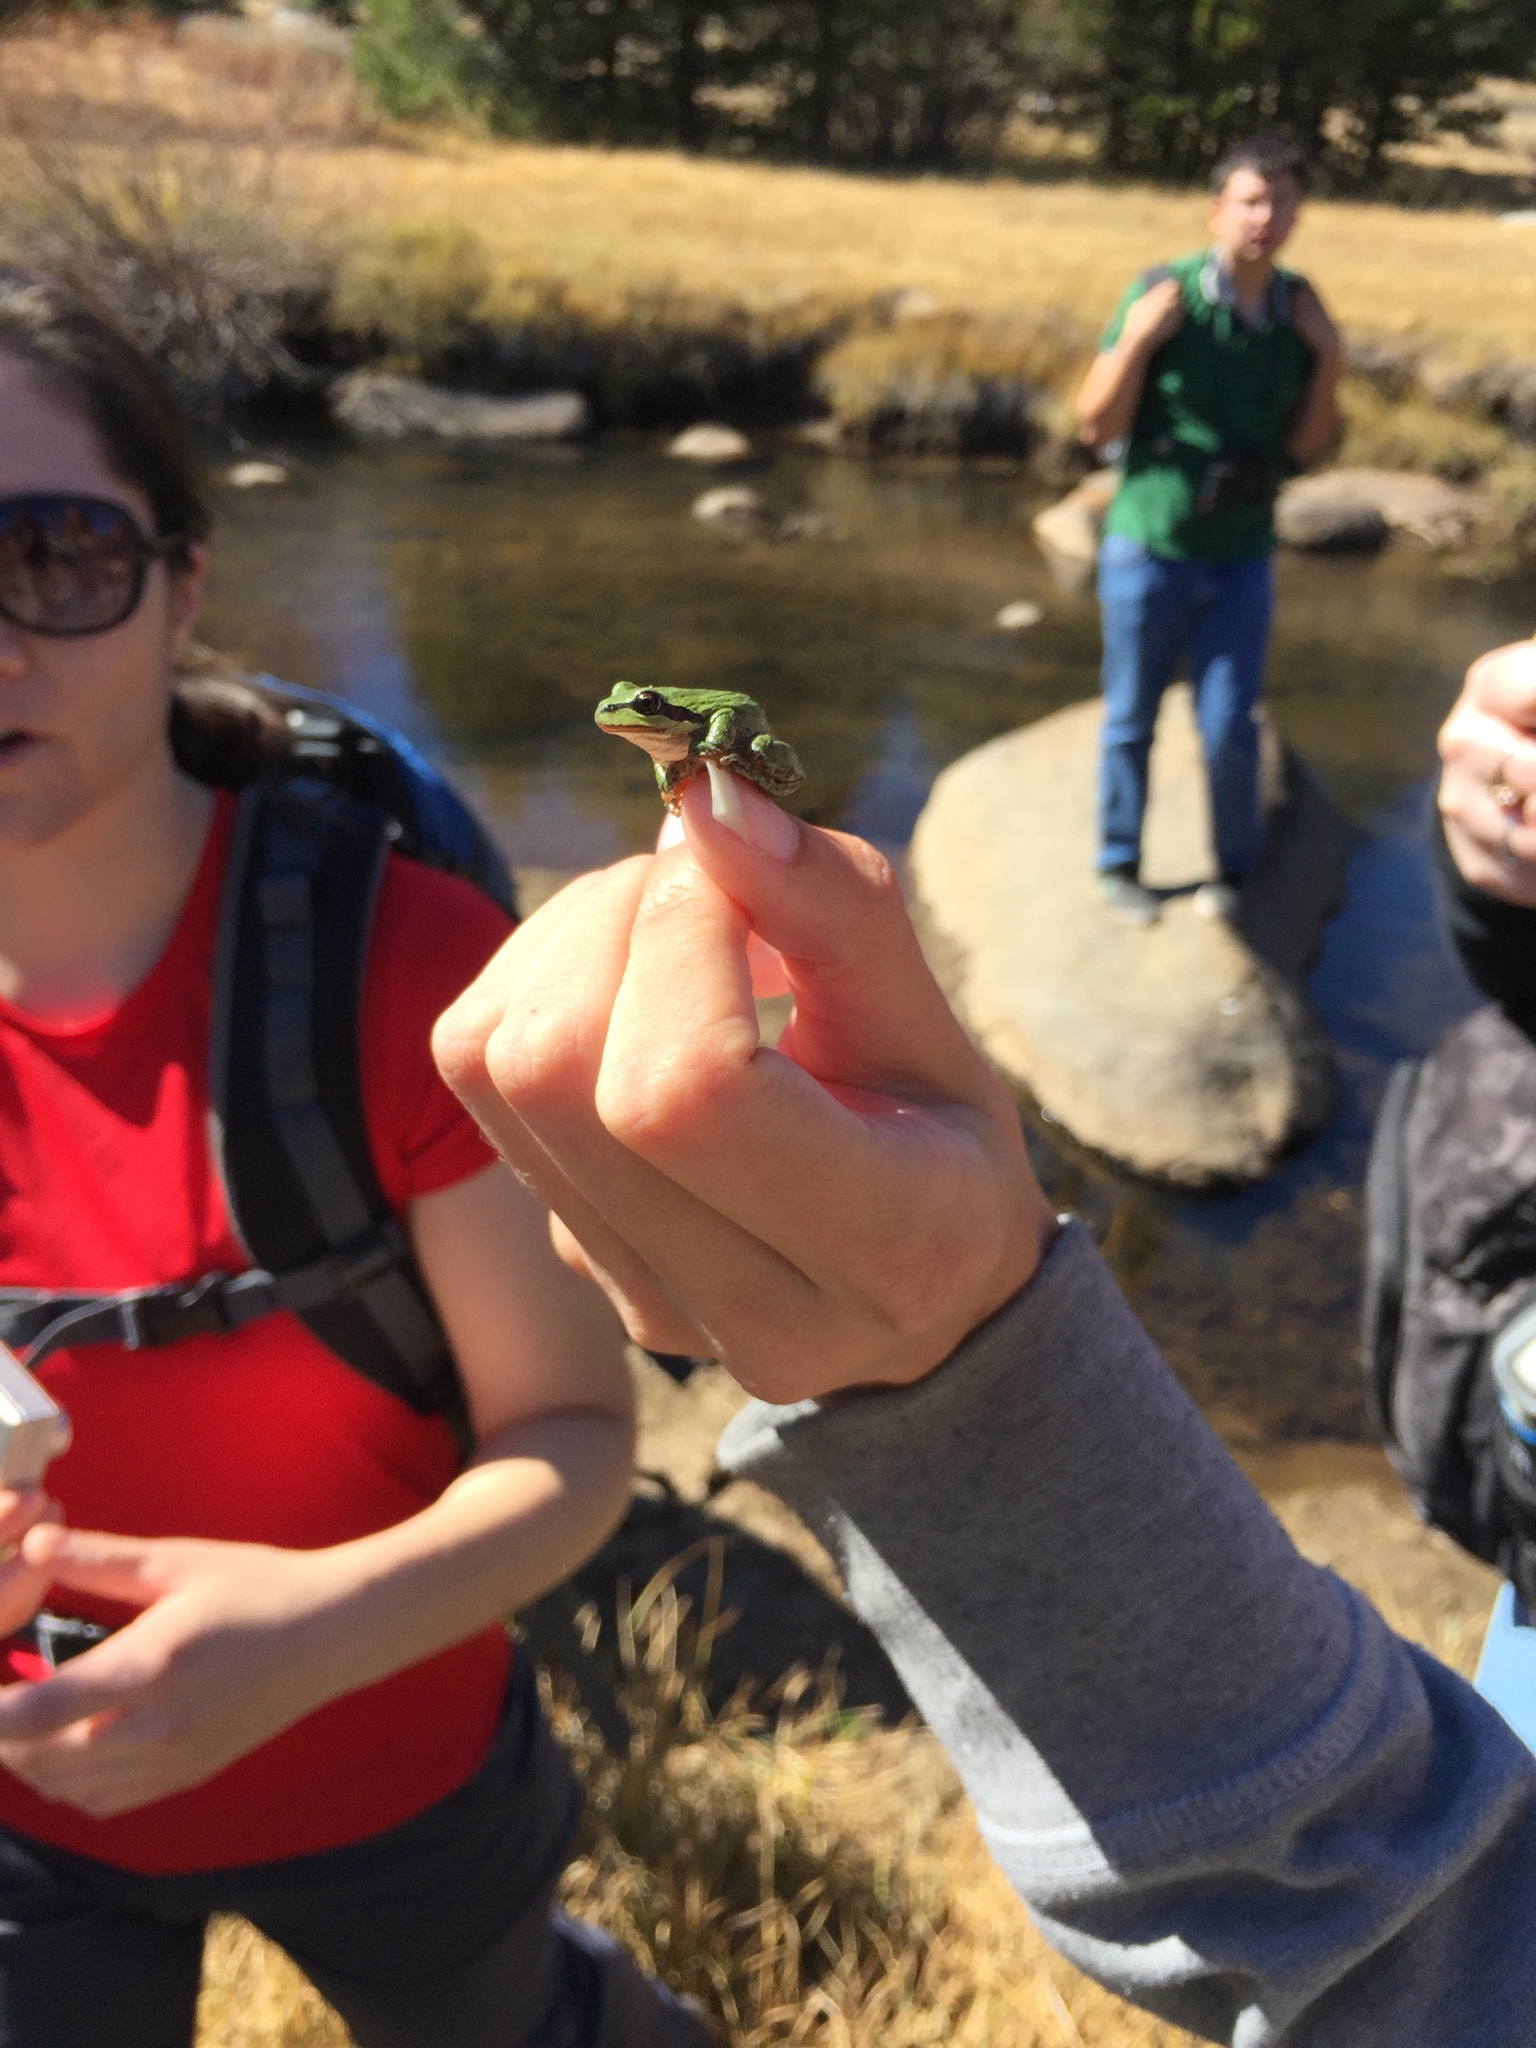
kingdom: Animalia
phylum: Chordata
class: Amphibia
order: Anura
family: Hylidae
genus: Pseudacris
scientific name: Pseudacris regilla
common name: Pacific chorus frog
